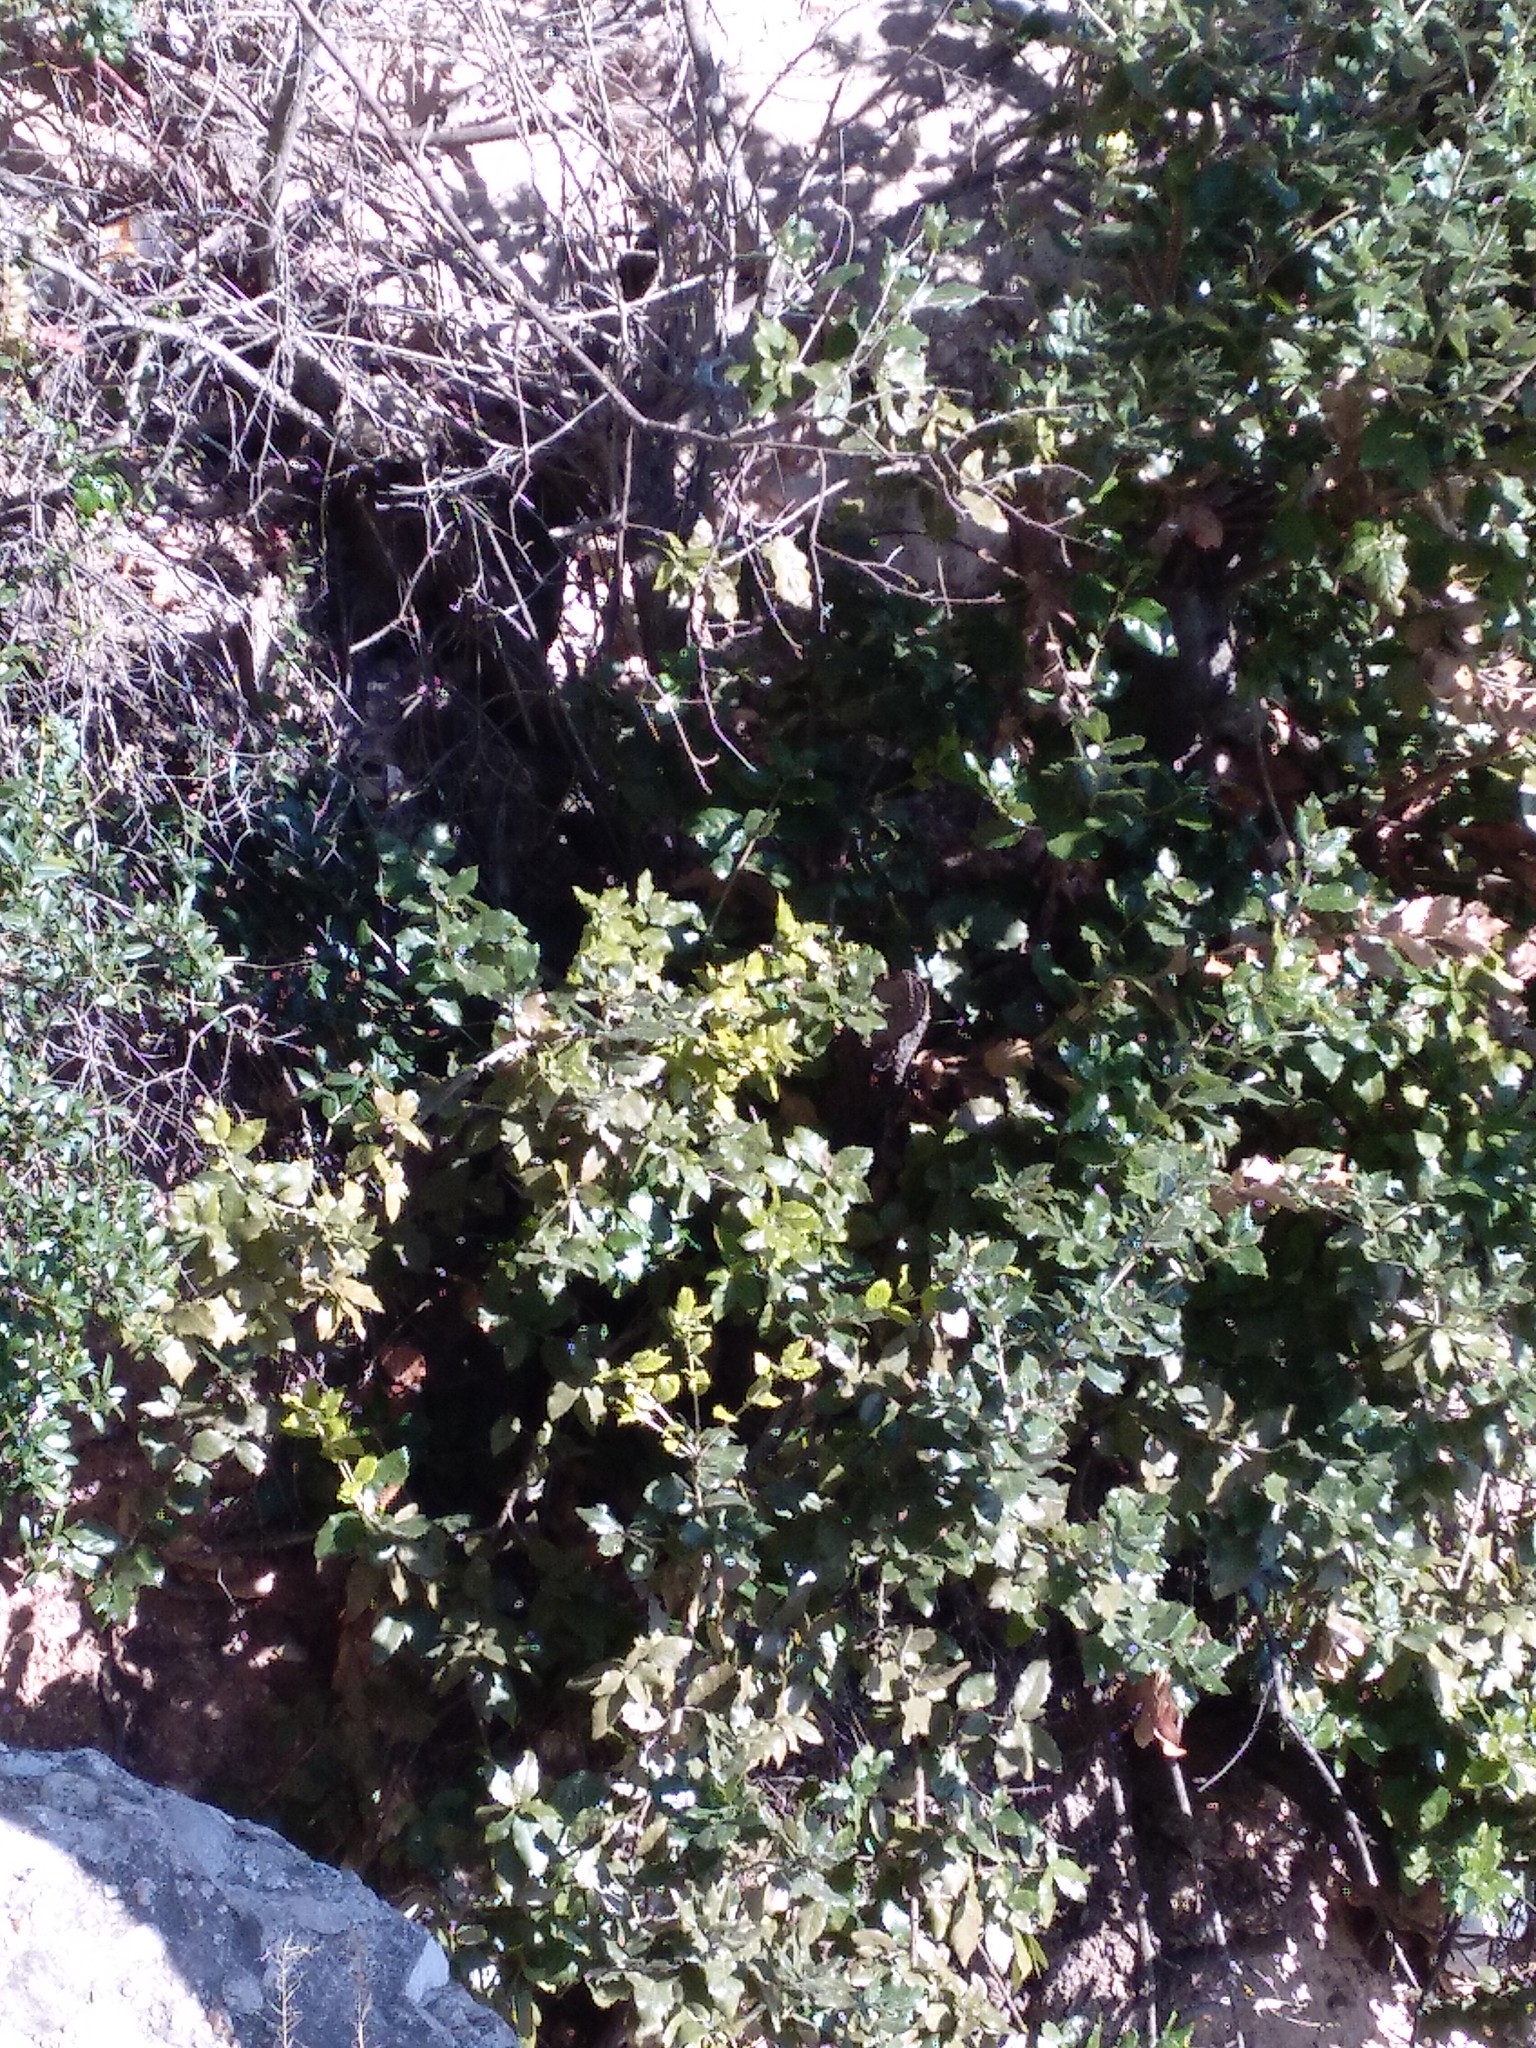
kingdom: Plantae
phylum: Tracheophyta
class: Magnoliopsida
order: Fagales
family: Fagaceae
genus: Quercus
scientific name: Quercus ilex
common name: Evergreen oak
